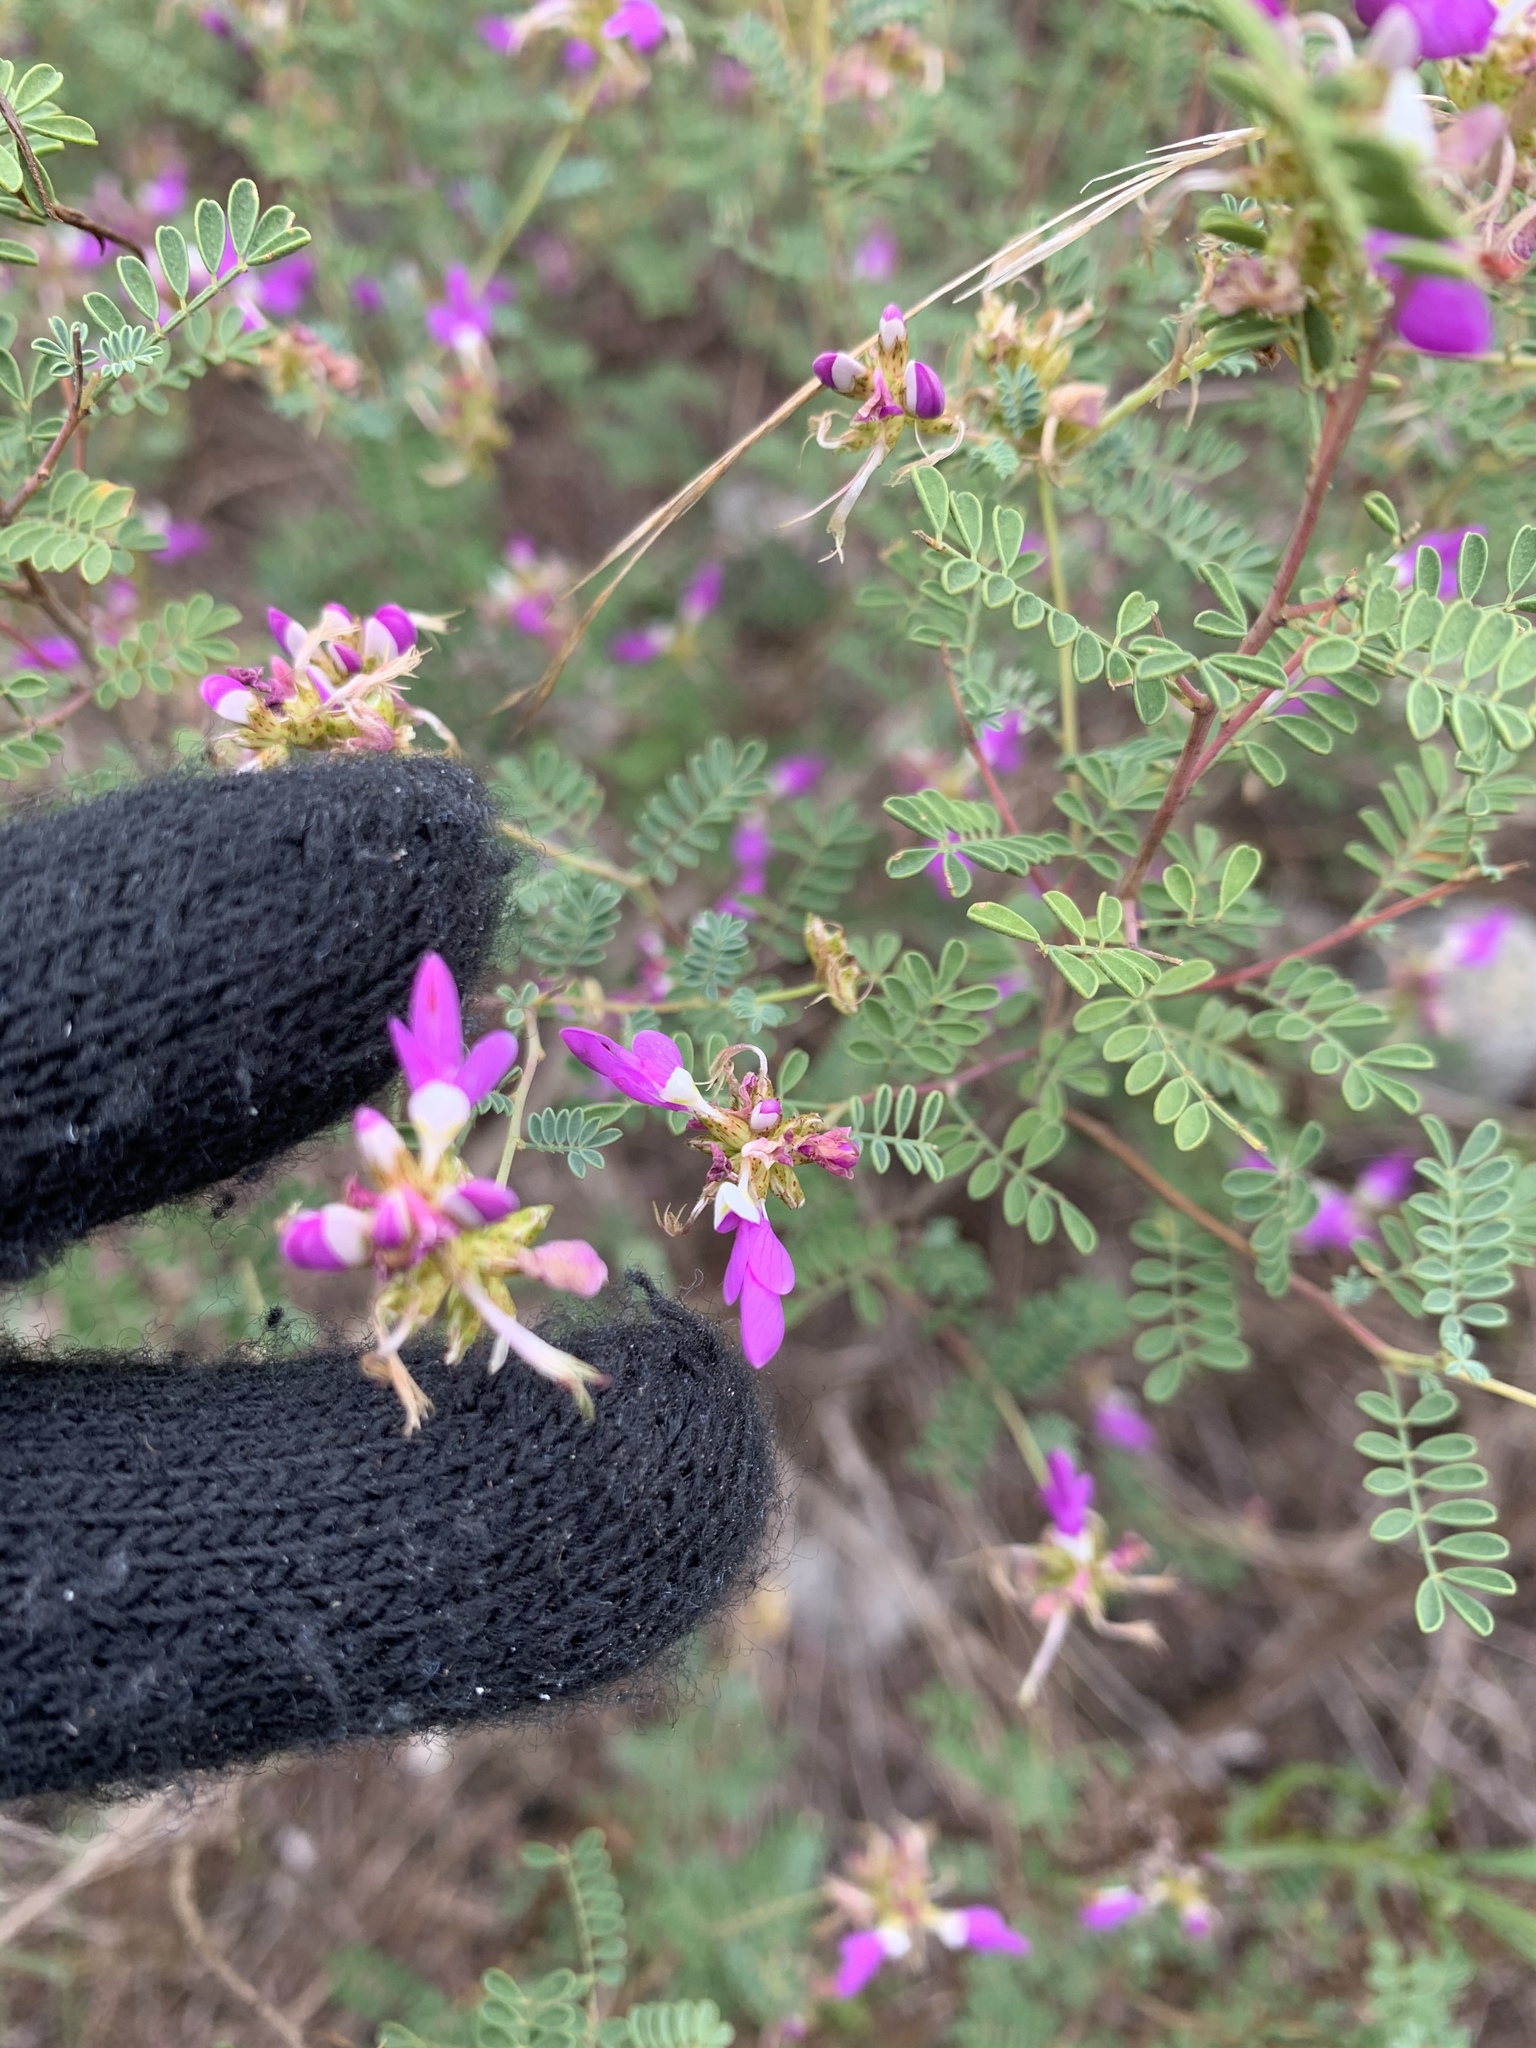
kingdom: Plantae
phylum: Tracheophyta
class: Magnoliopsida
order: Fabales
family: Fabaceae
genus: Dalea
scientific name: Dalea frutescens
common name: Black dalea
